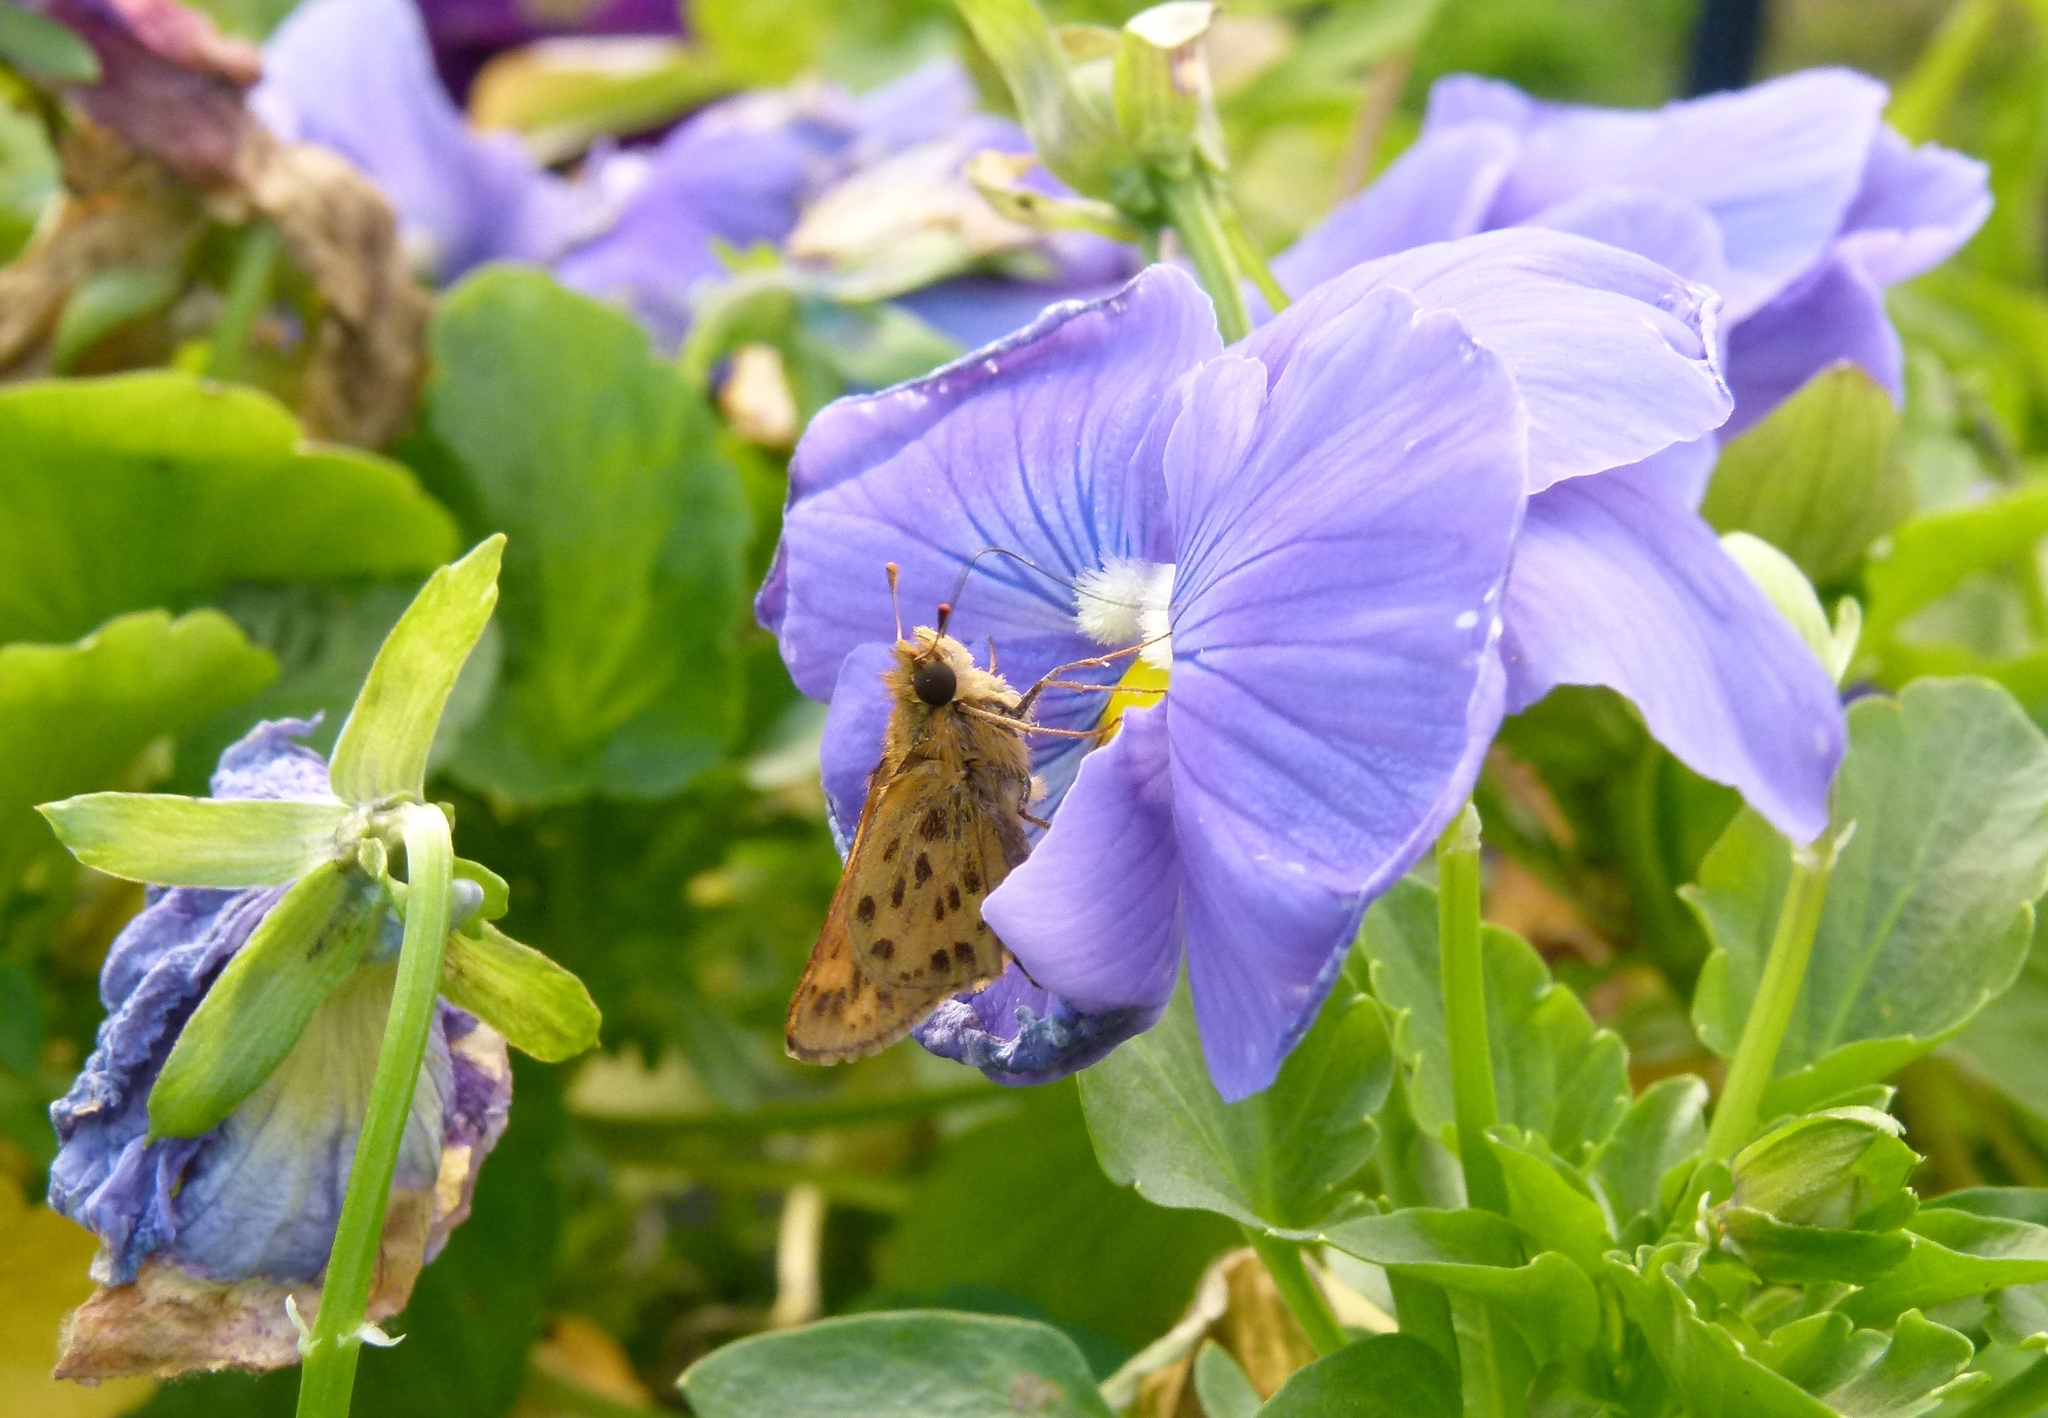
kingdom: Animalia
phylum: Arthropoda
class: Insecta
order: Lepidoptera
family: Hesperiidae
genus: Hylephila
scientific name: Hylephila phyleus
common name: Fiery skipper
